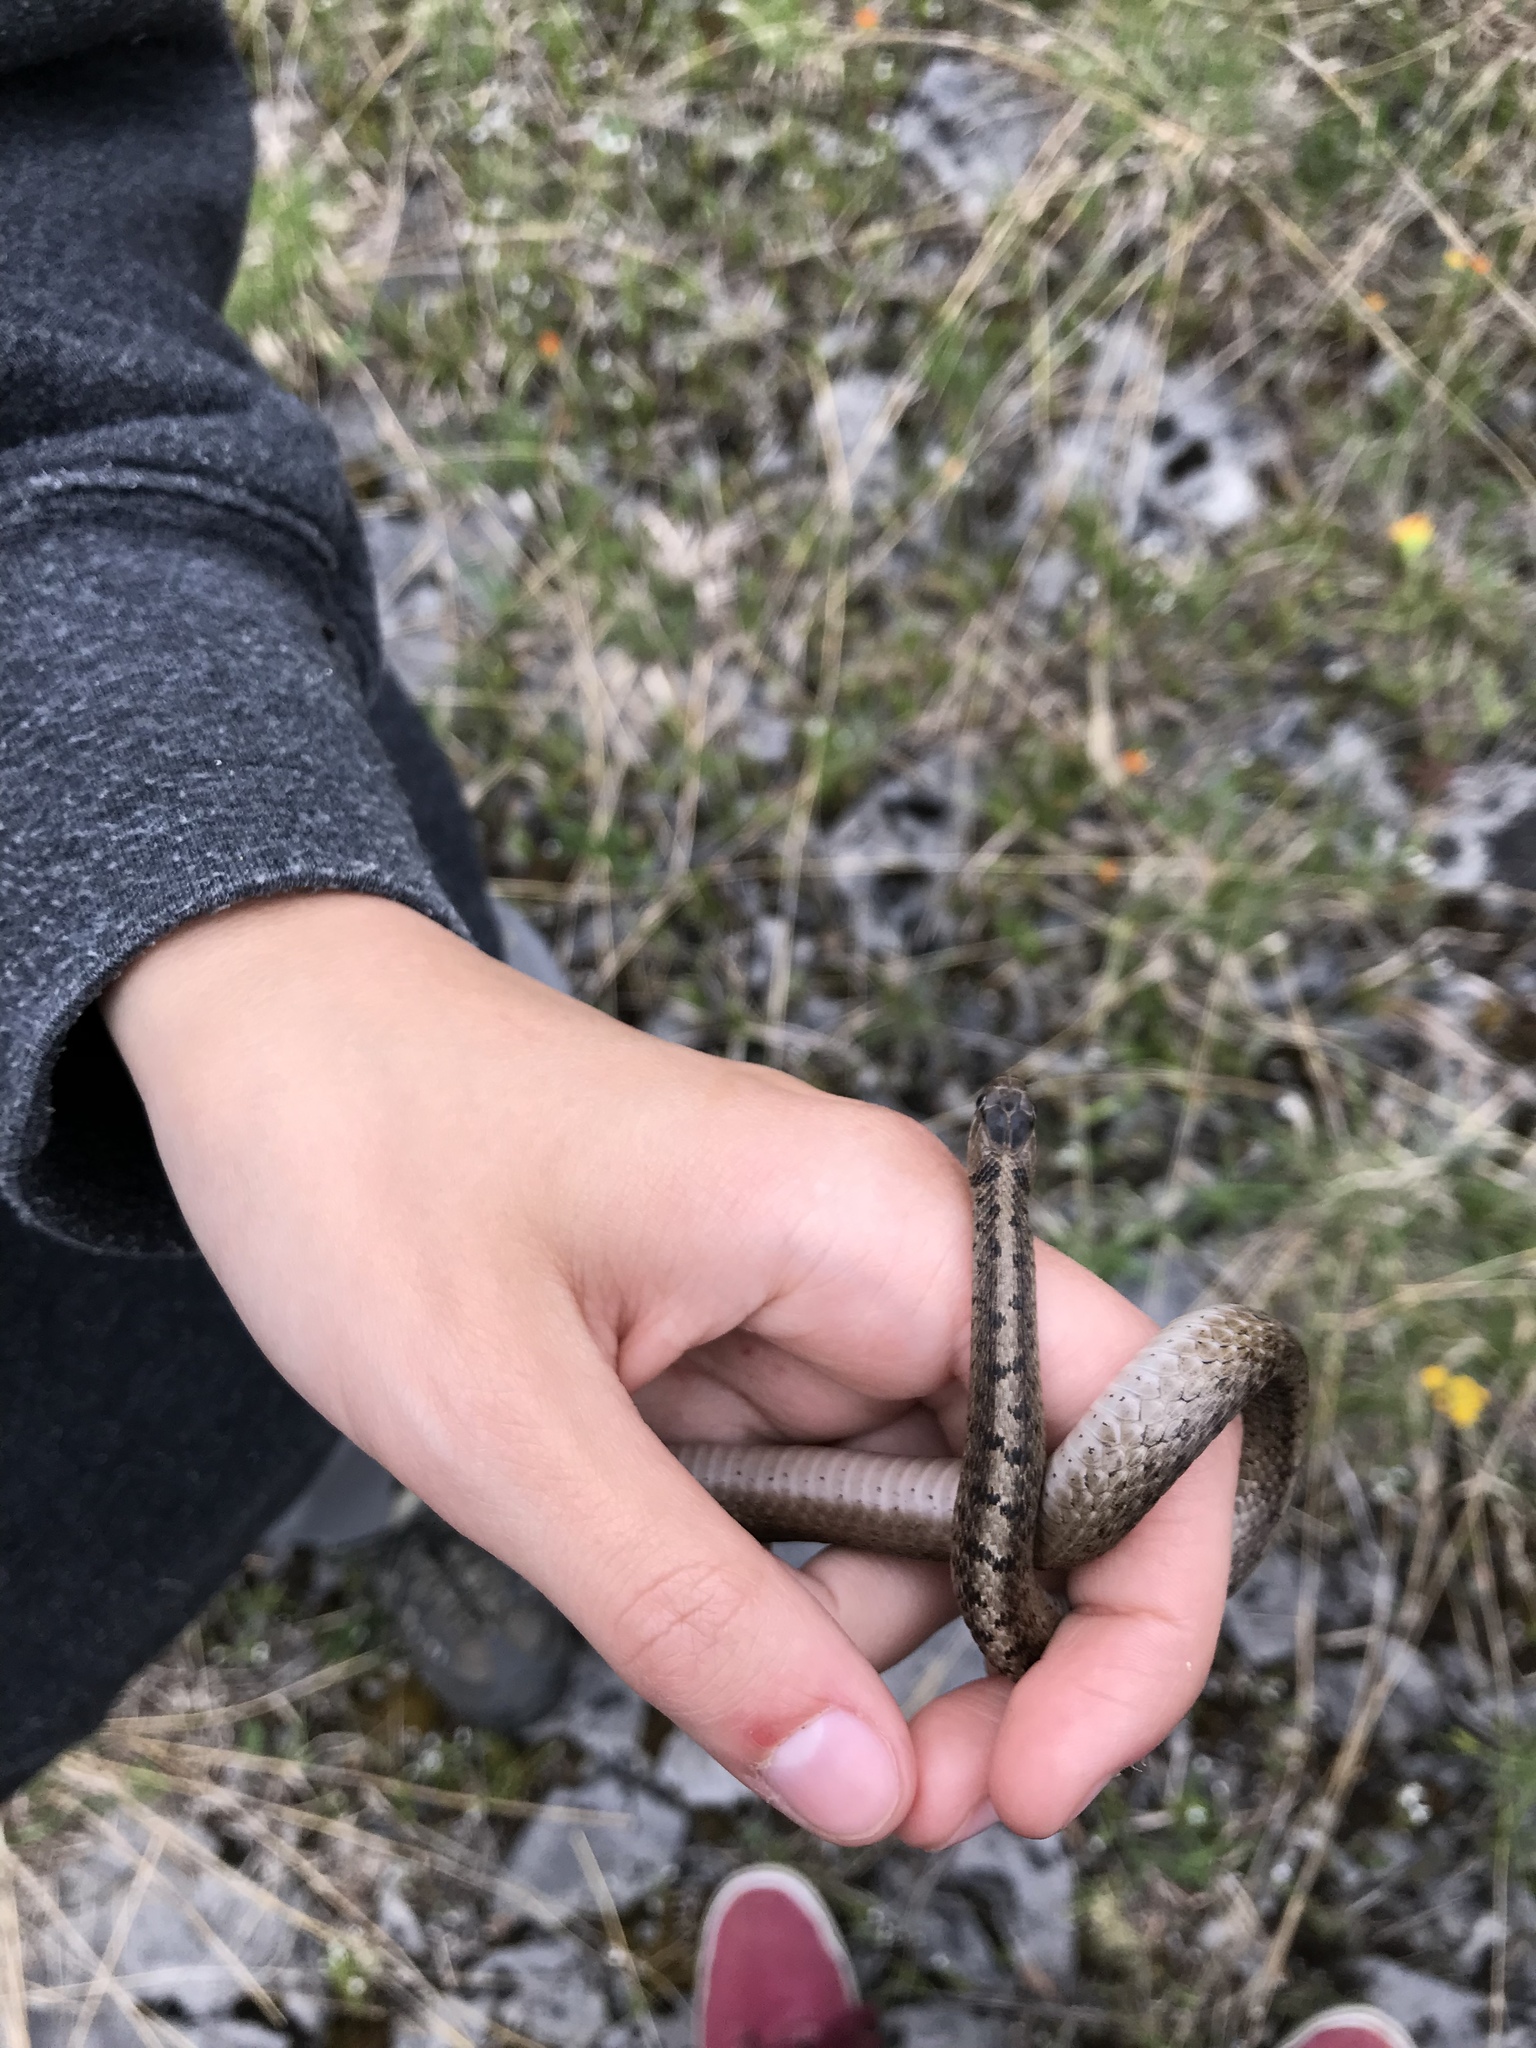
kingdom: Animalia
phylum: Chordata
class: Squamata
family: Colubridae
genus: Storeria
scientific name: Storeria dekayi
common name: (dekay’s) brown snake
